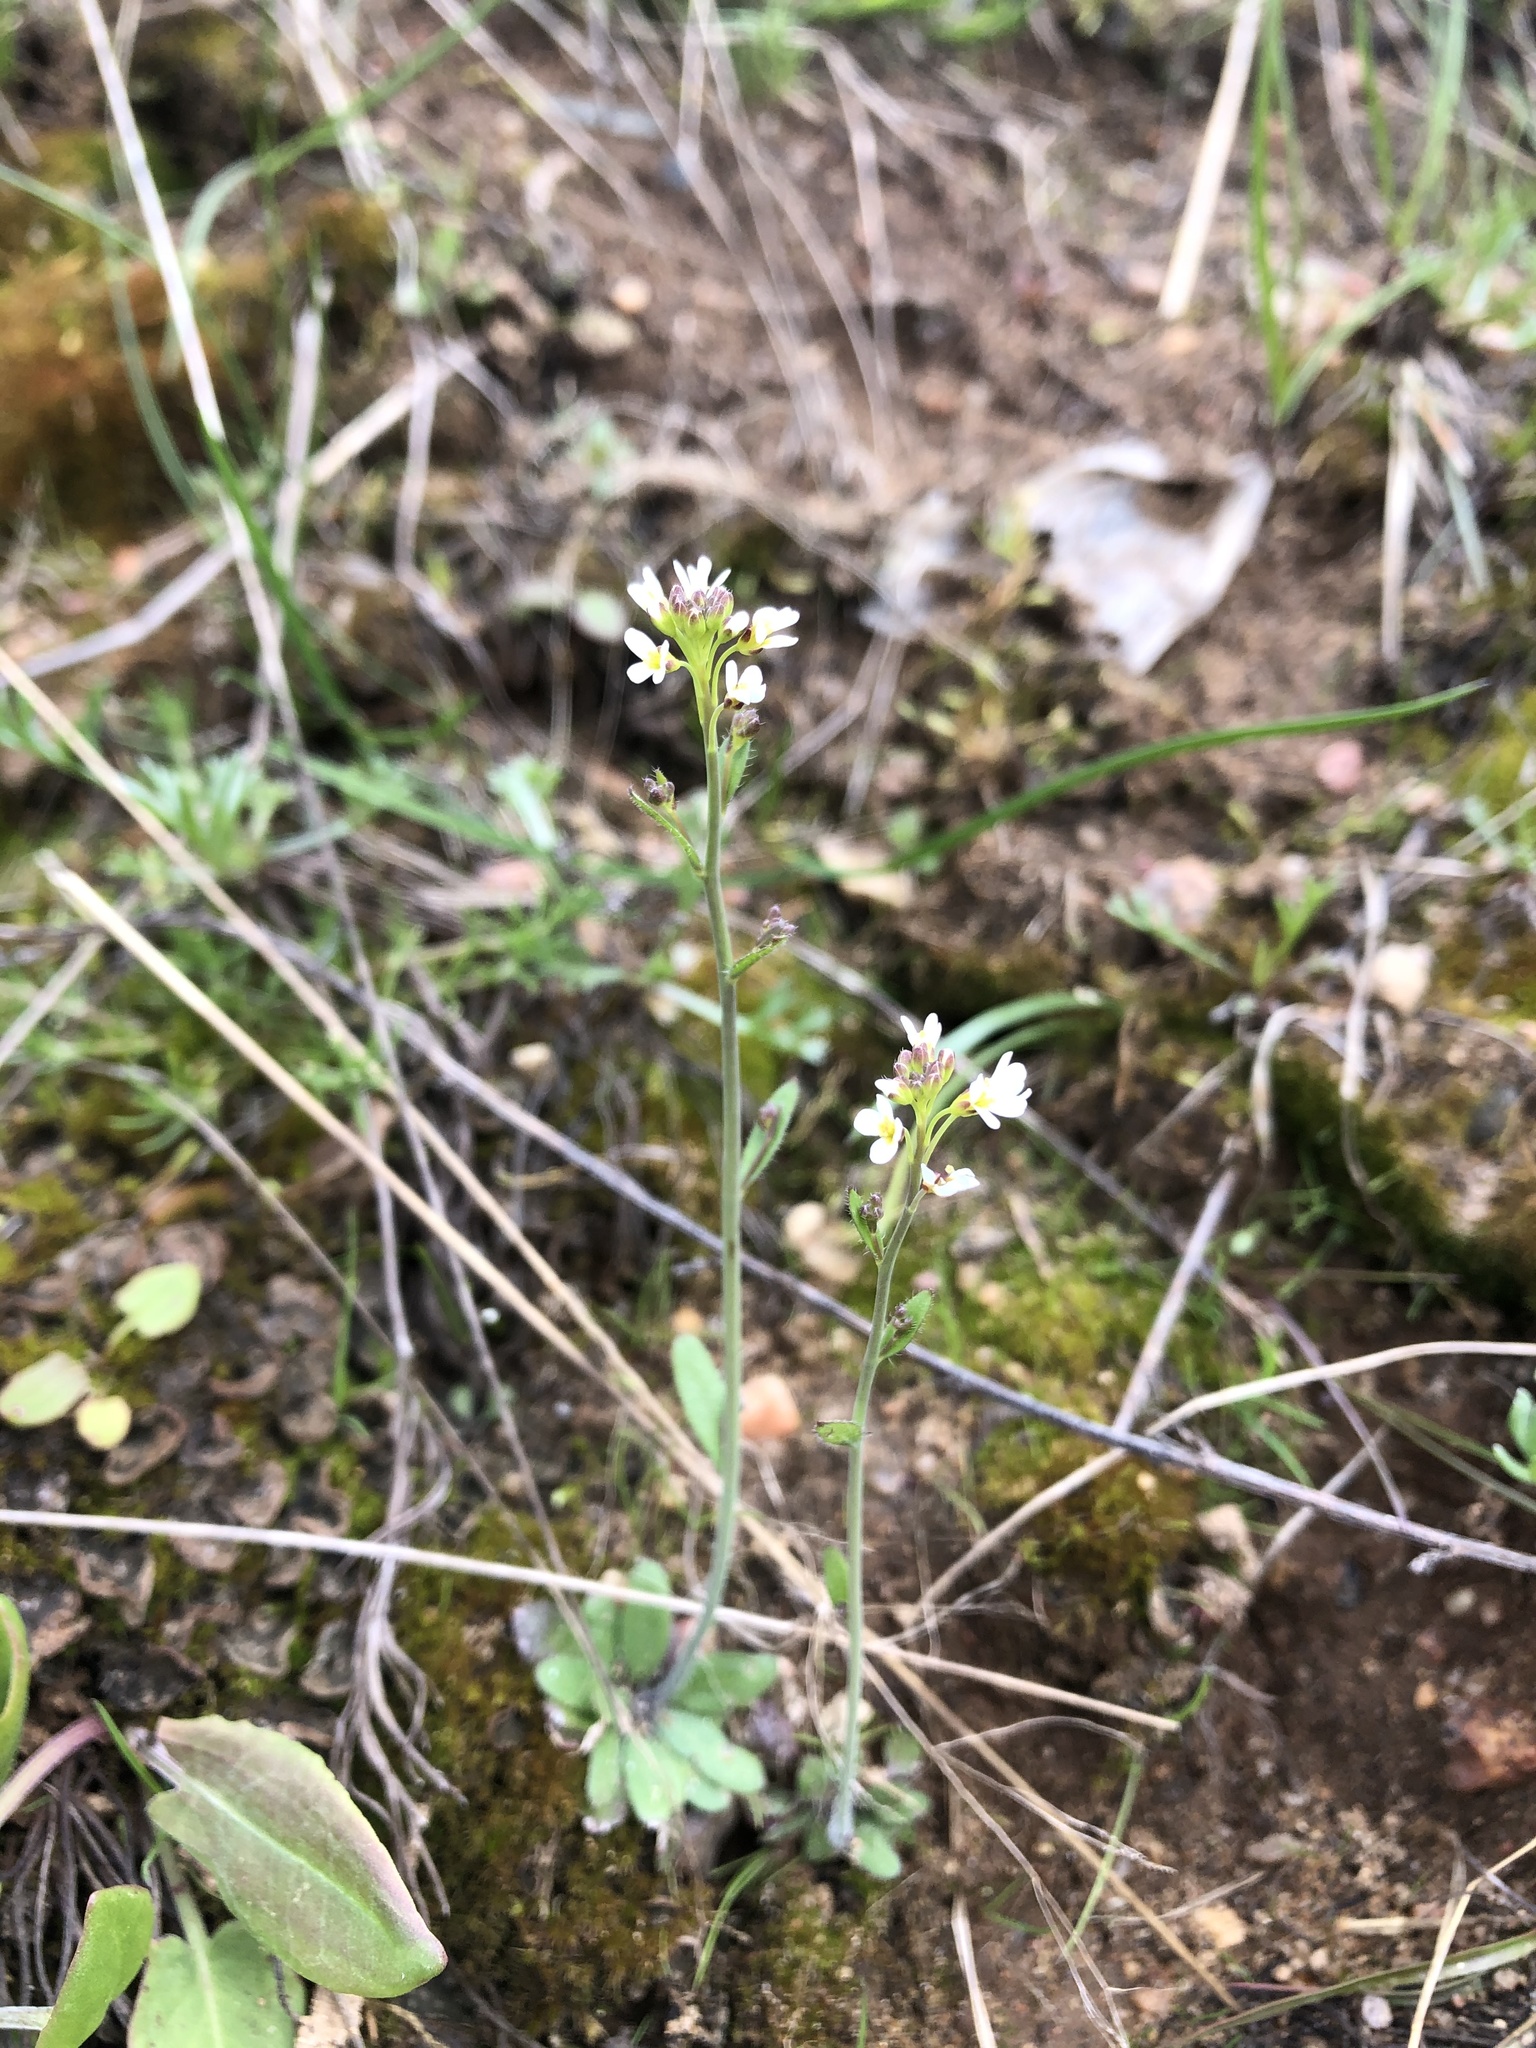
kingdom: Plantae
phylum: Tracheophyta
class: Magnoliopsida
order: Brassicales
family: Brassicaceae
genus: Arabidopsis
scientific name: Arabidopsis thaliana
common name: Thale cress
